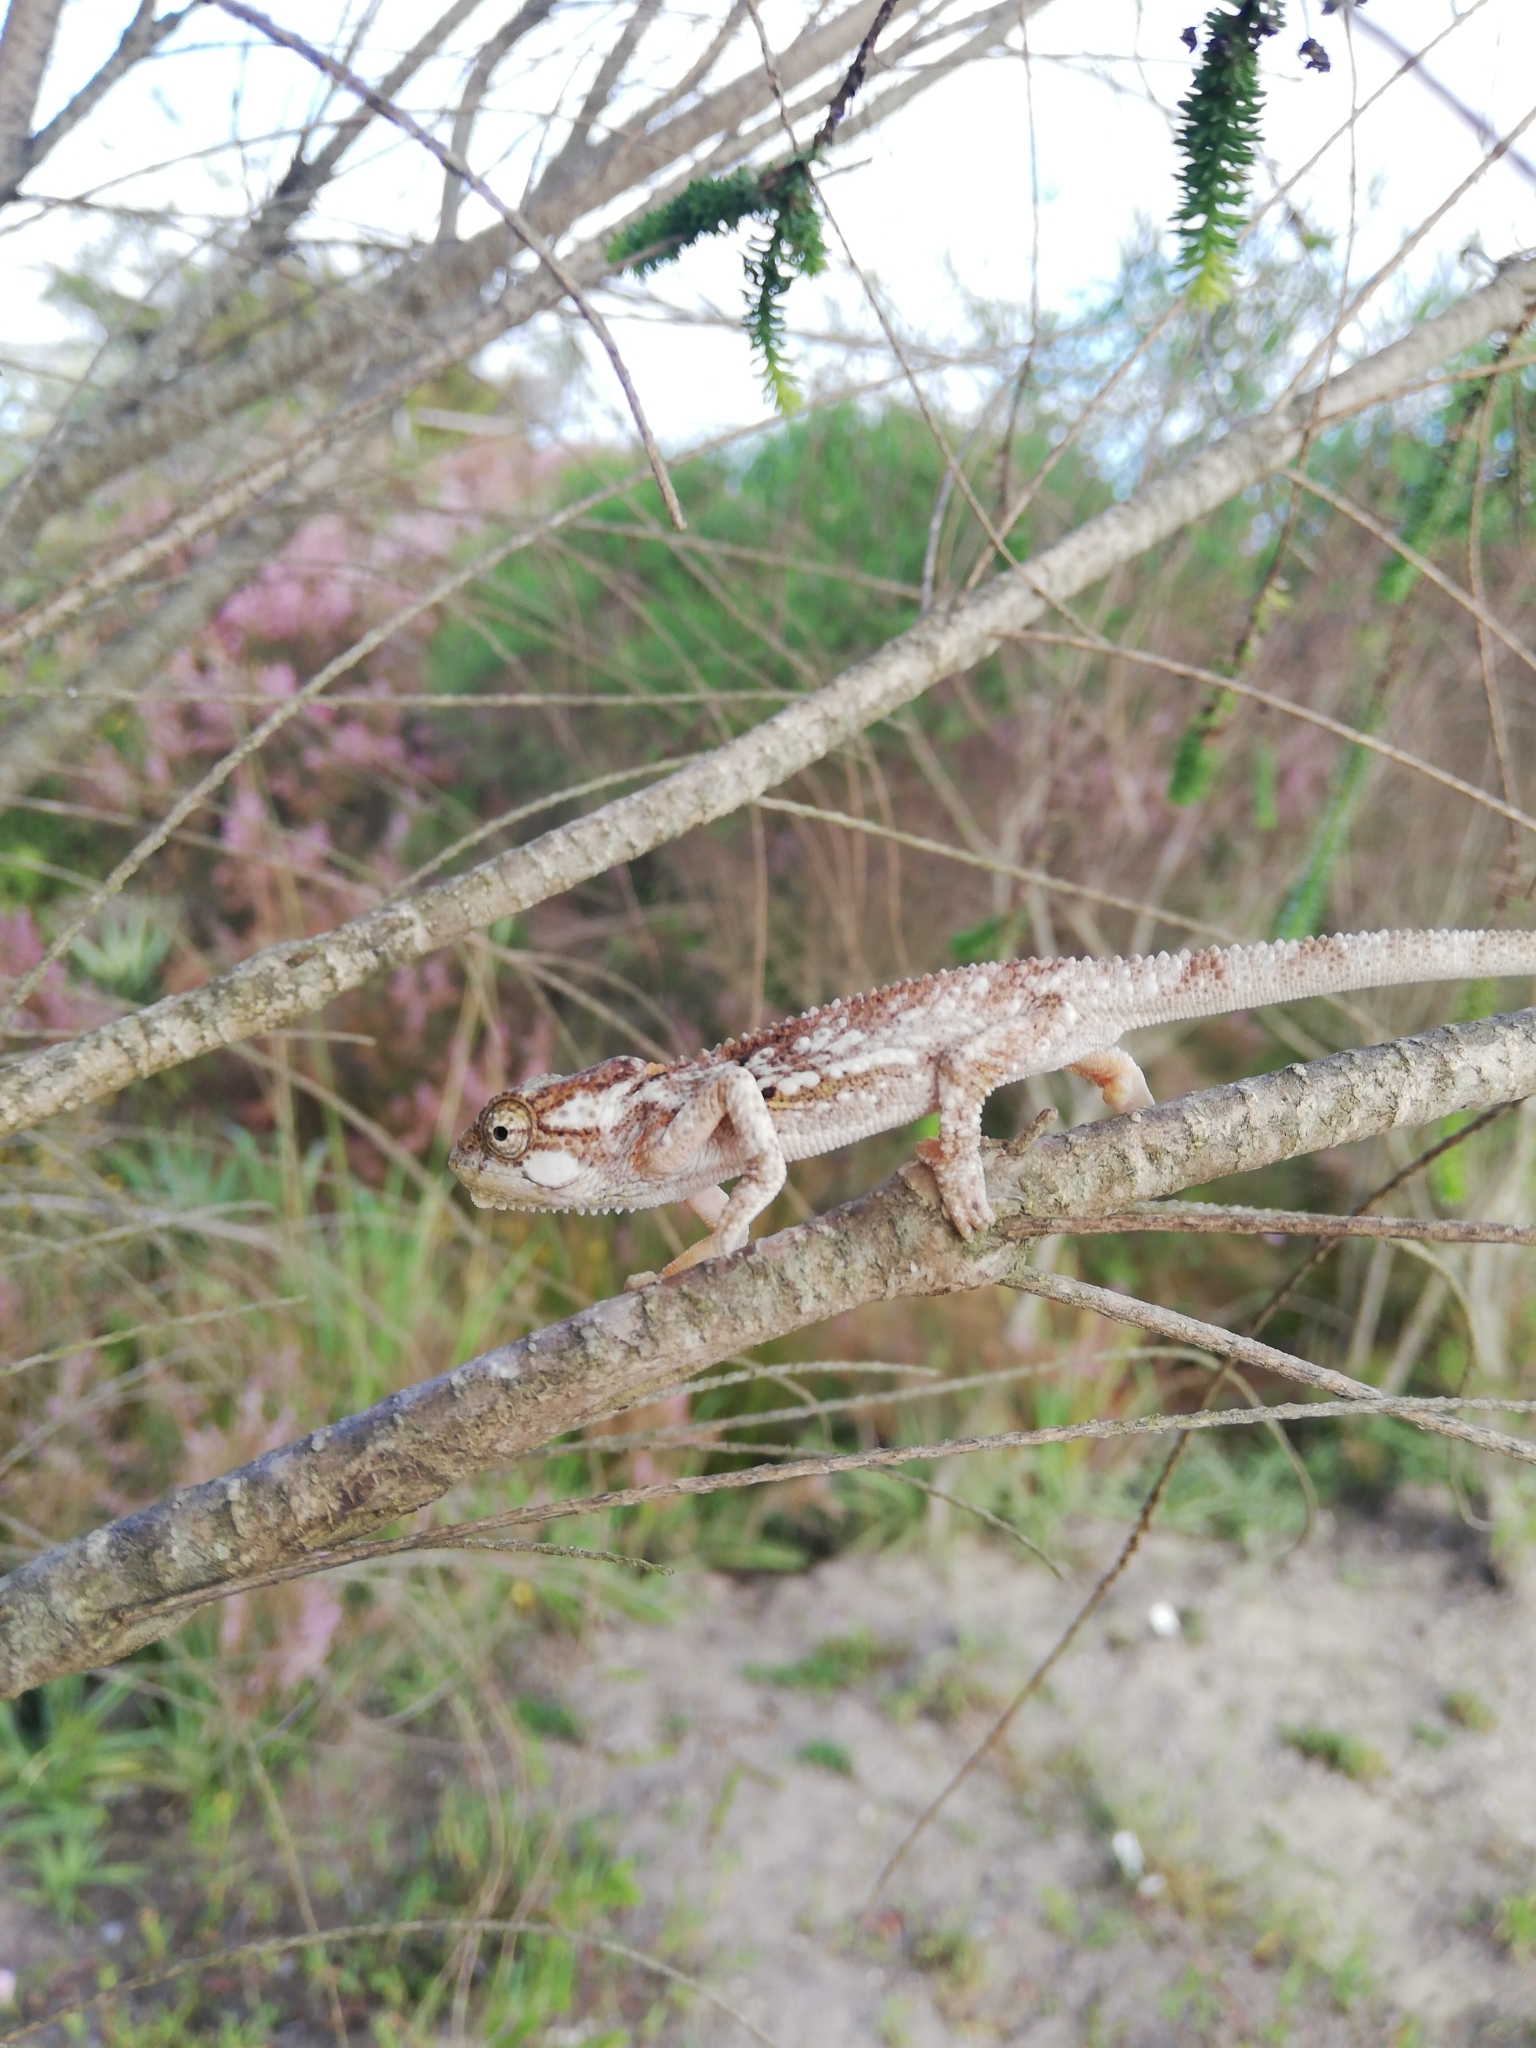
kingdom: Animalia
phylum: Chordata
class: Squamata
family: Chamaeleonidae
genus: Bradypodion
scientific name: Bradypodion damaranum
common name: Knysna dwarf chameleon
